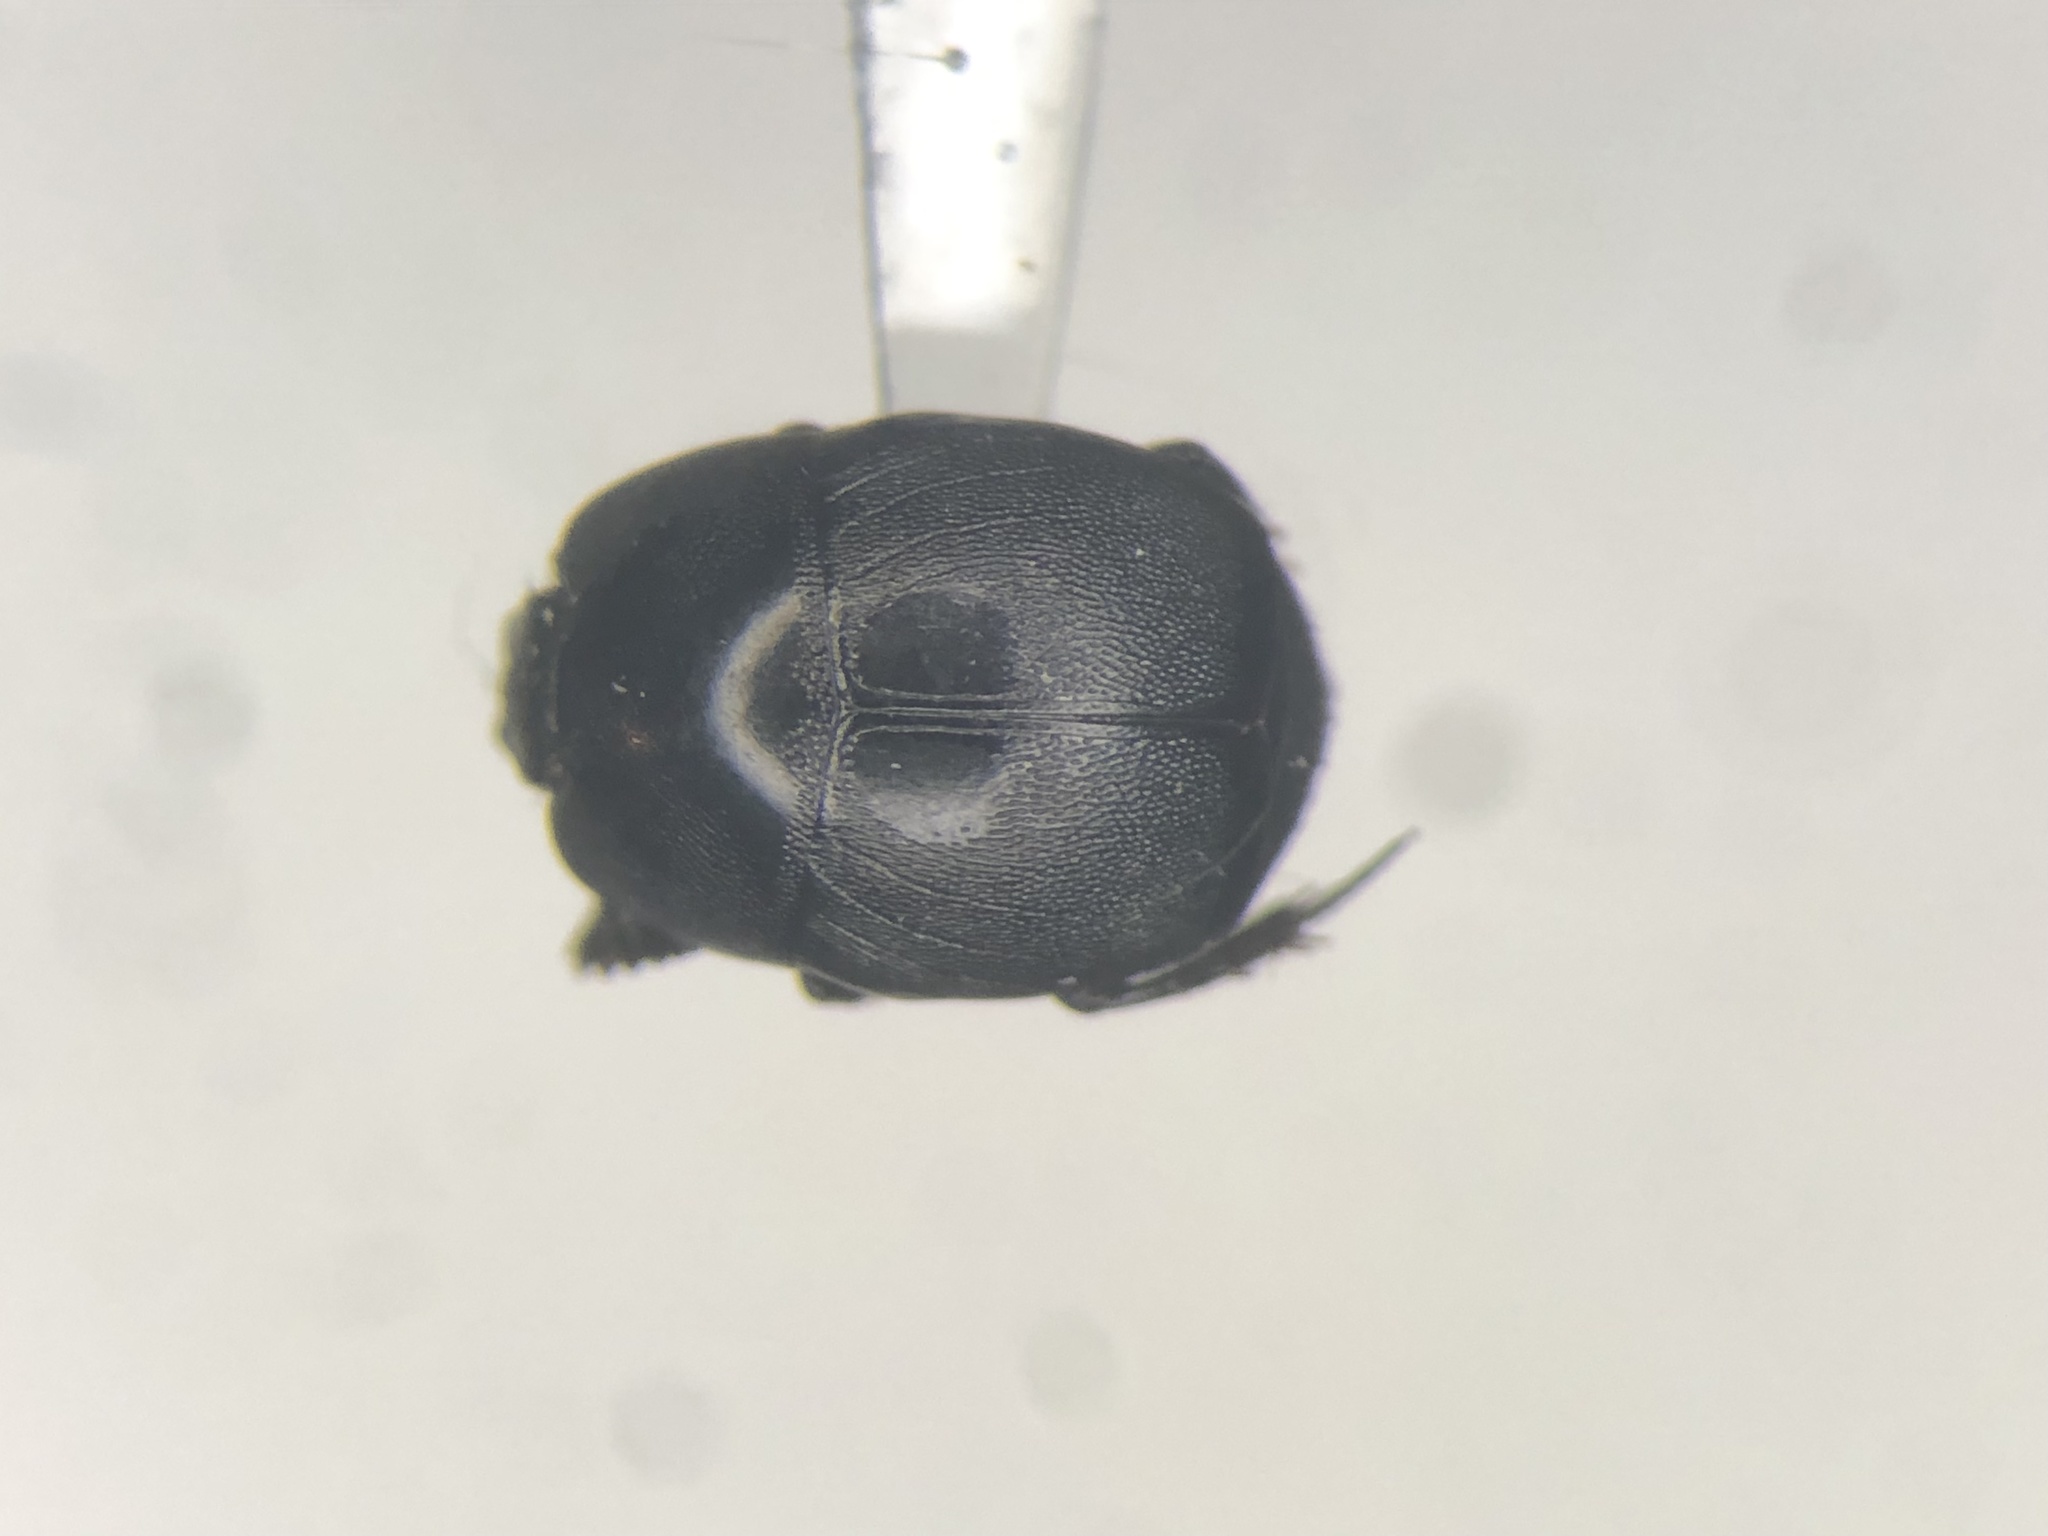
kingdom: Animalia
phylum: Arthropoda
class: Insecta
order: Coleoptera
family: Histeridae
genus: Hypocaccus
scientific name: Hypocaccus fraternus
